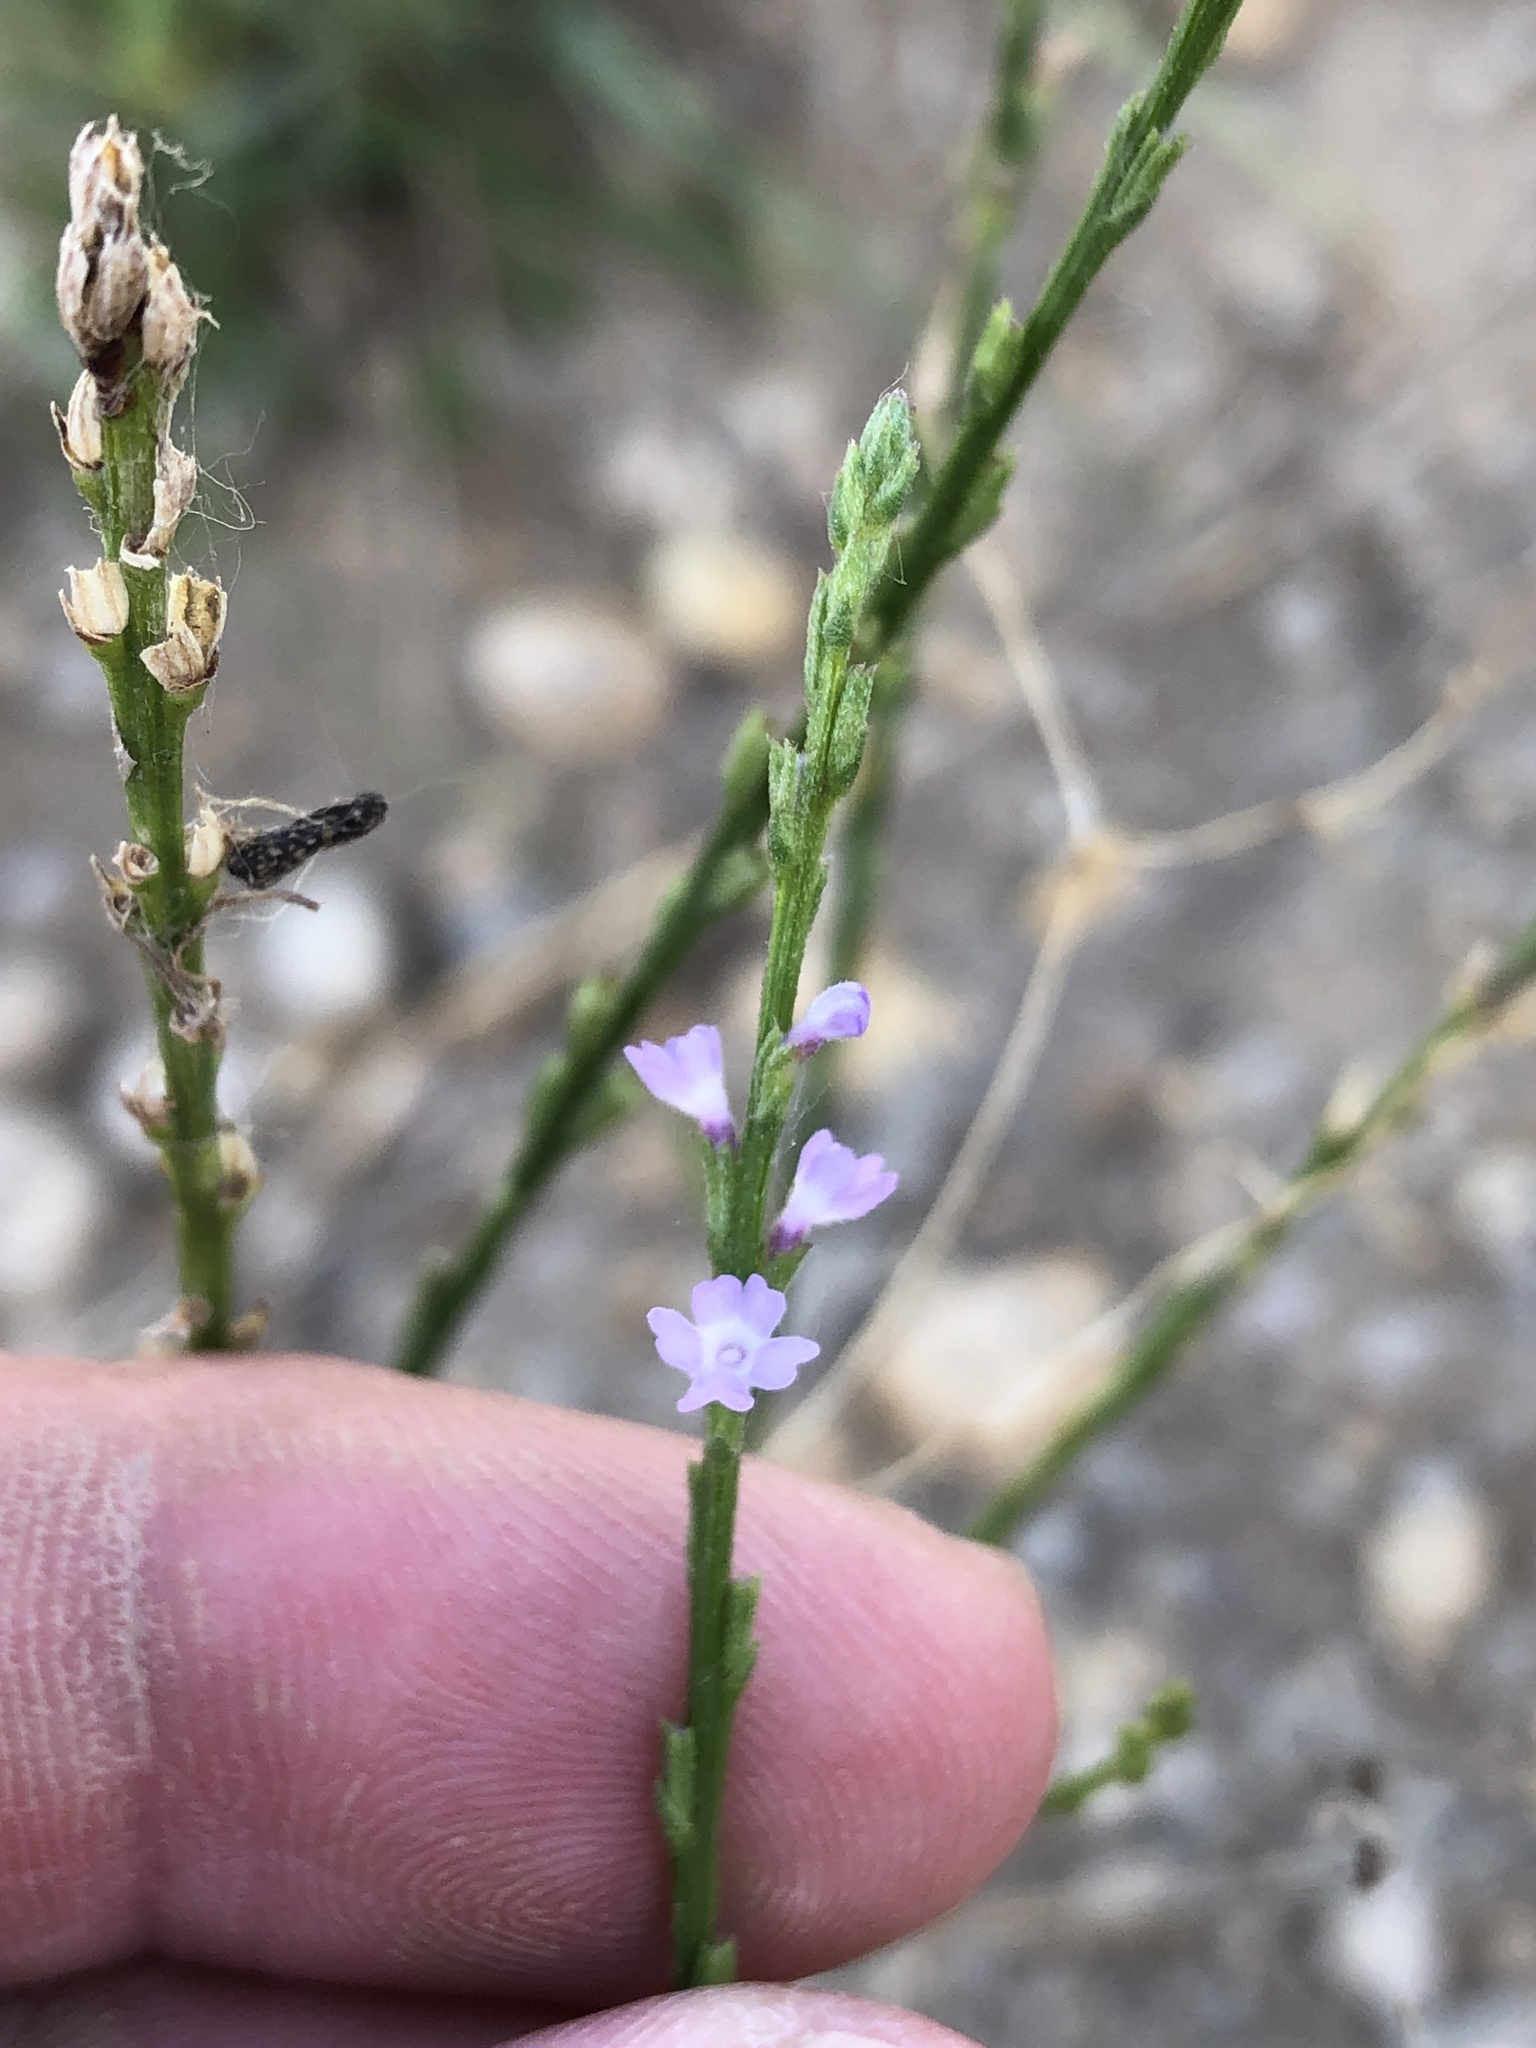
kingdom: Plantae
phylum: Tracheophyta
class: Magnoliopsida
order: Lamiales
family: Verbenaceae
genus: Verbena
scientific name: Verbena halei
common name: Texas vervain
